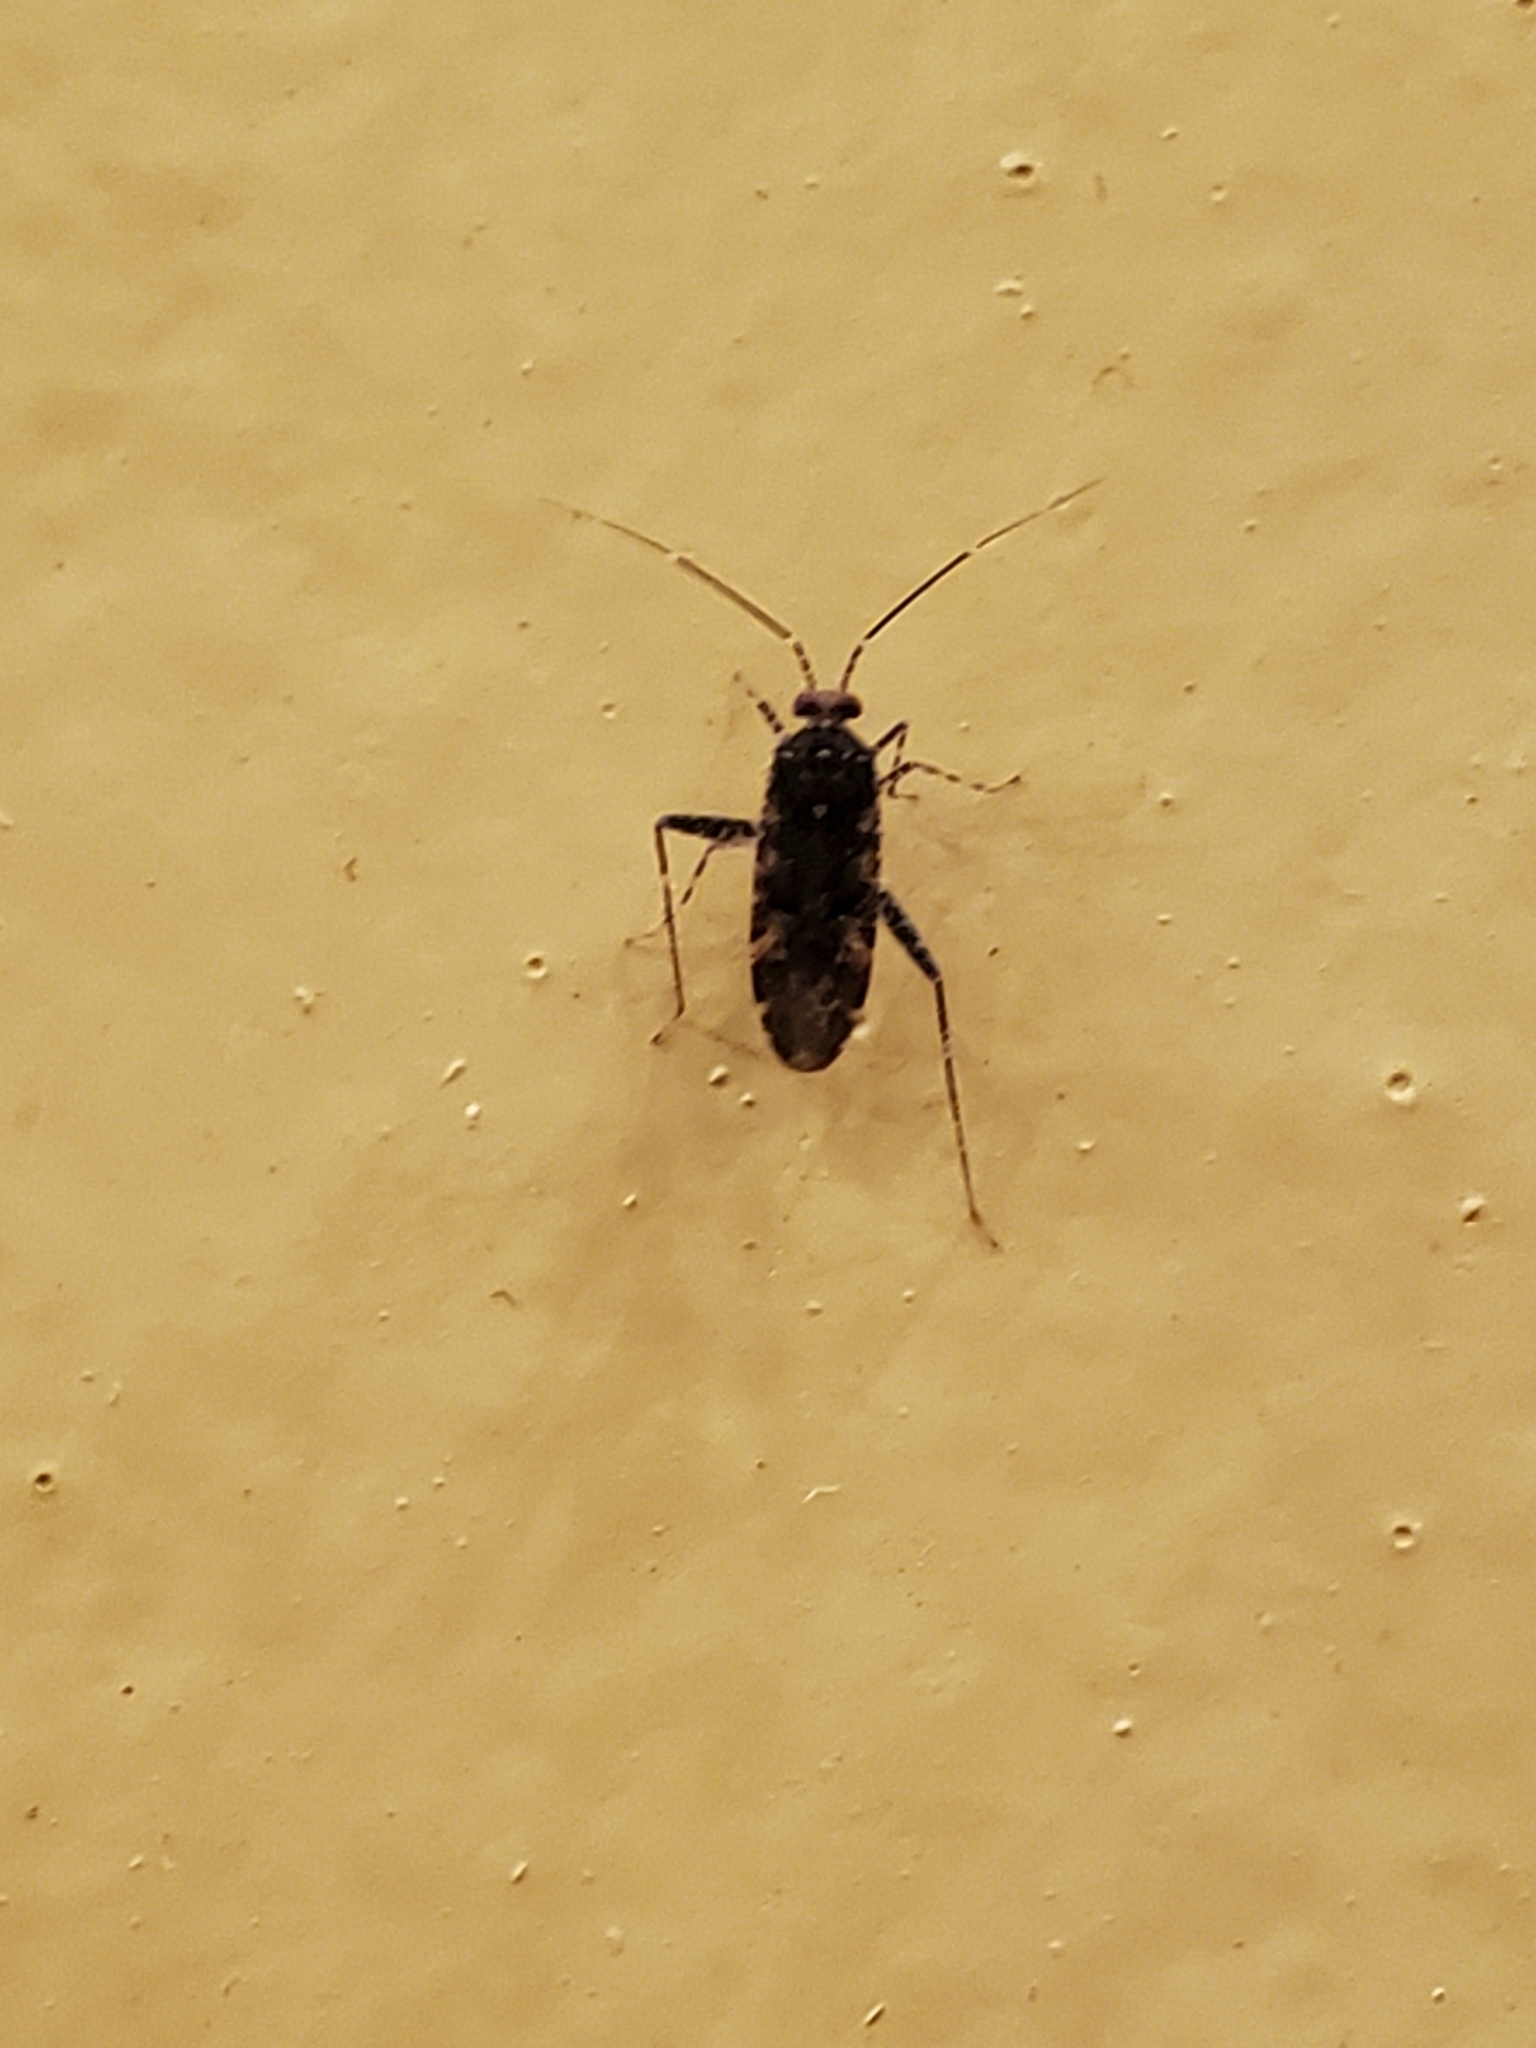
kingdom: Animalia
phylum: Arthropoda
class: Insecta
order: Hemiptera
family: Miridae
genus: Phytocoris
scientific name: Phytocoris
